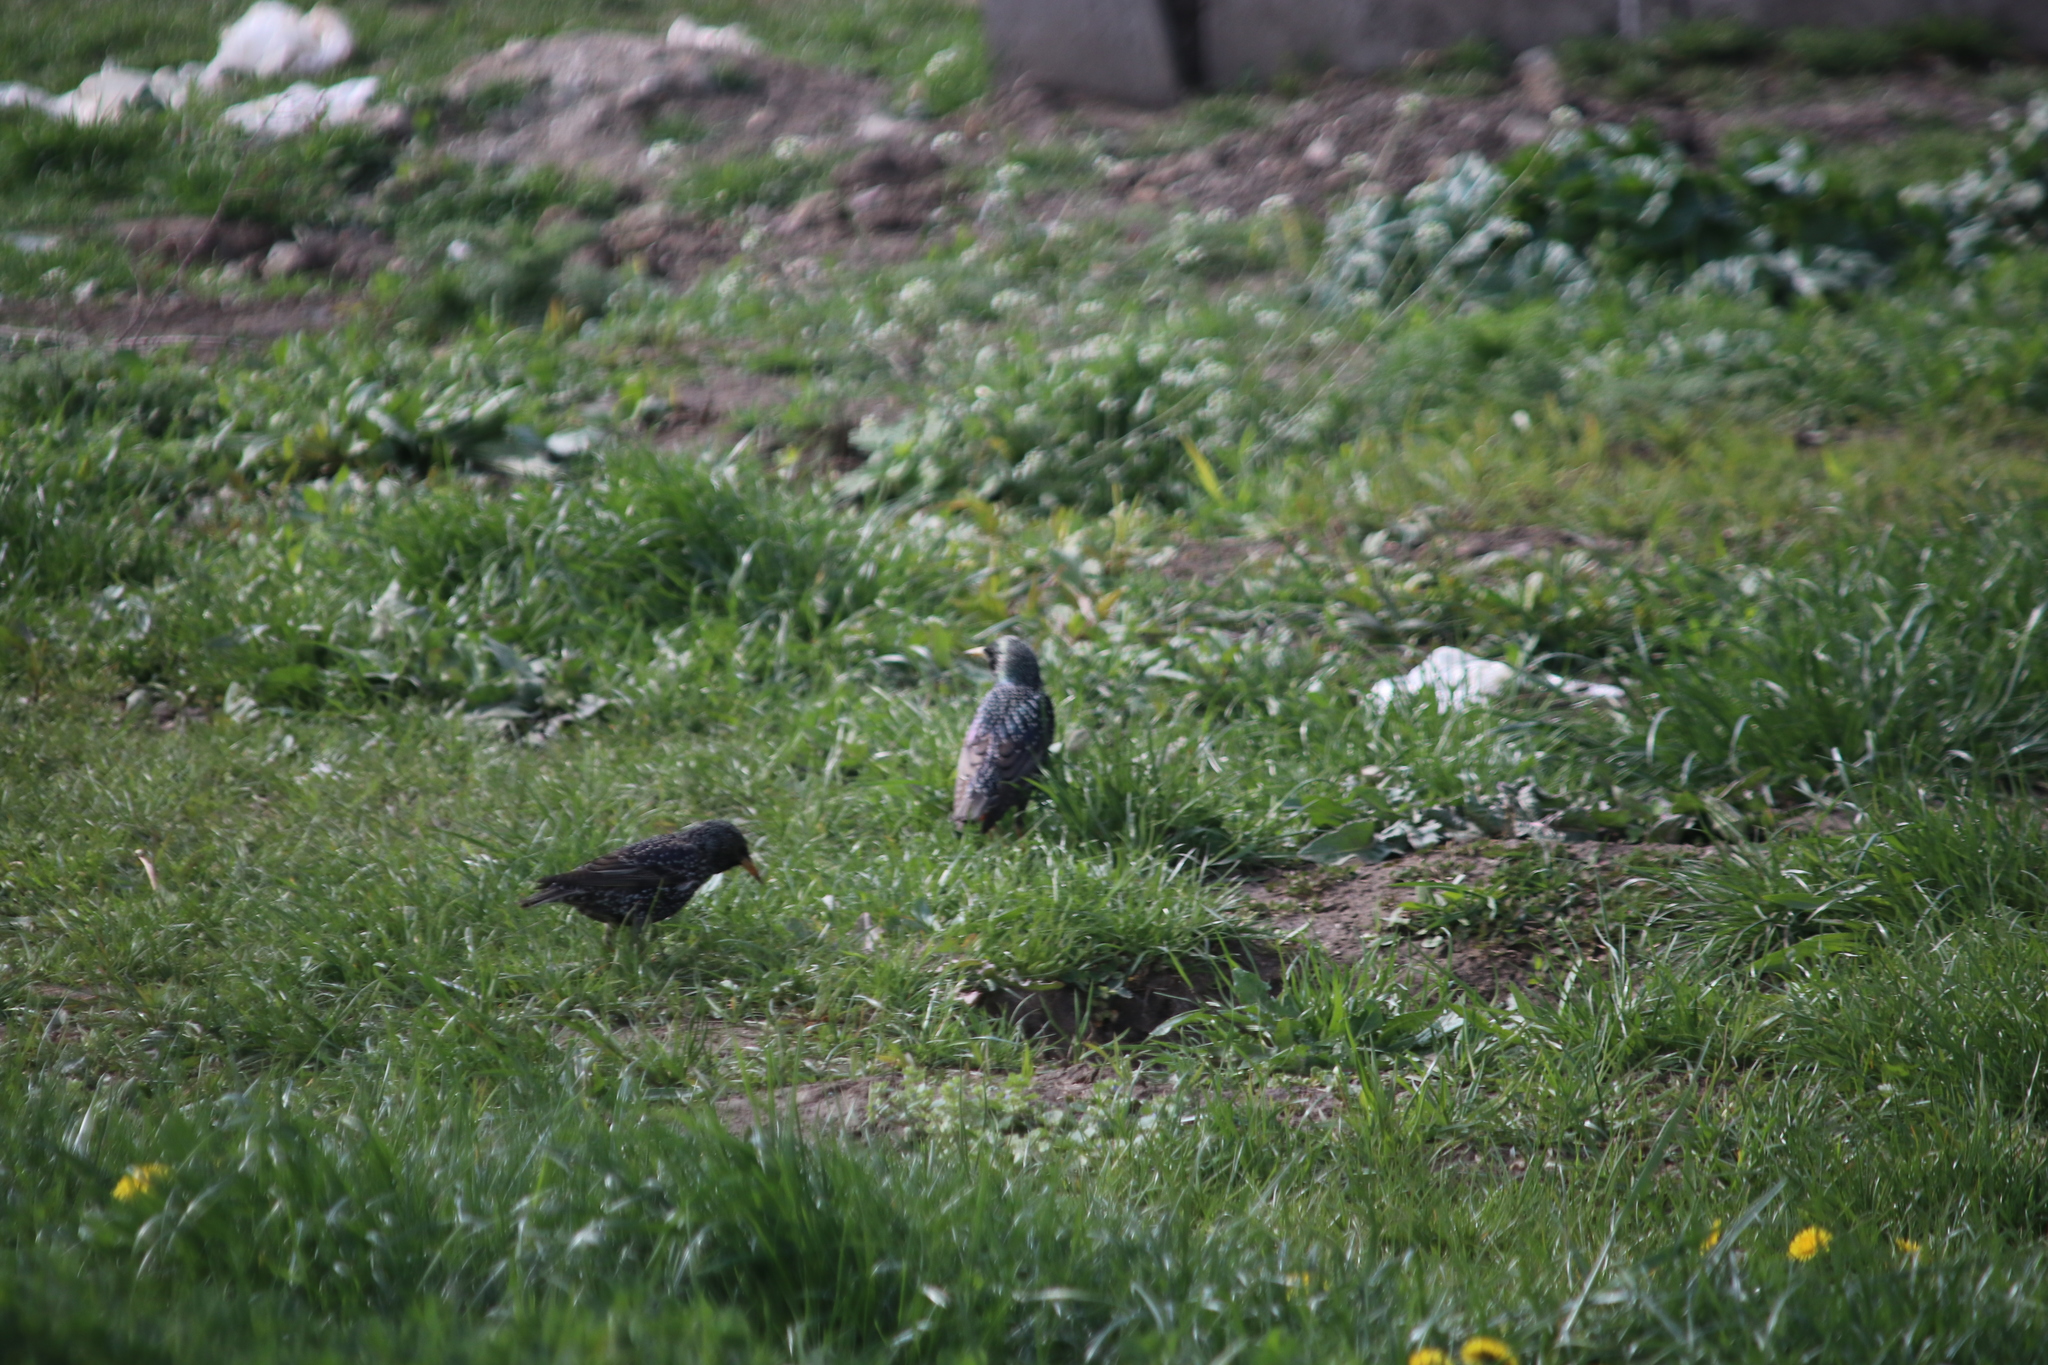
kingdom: Animalia
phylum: Chordata
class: Aves
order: Passeriformes
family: Sturnidae
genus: Sturnus
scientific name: Sturnus vulgaris
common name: Common starling
